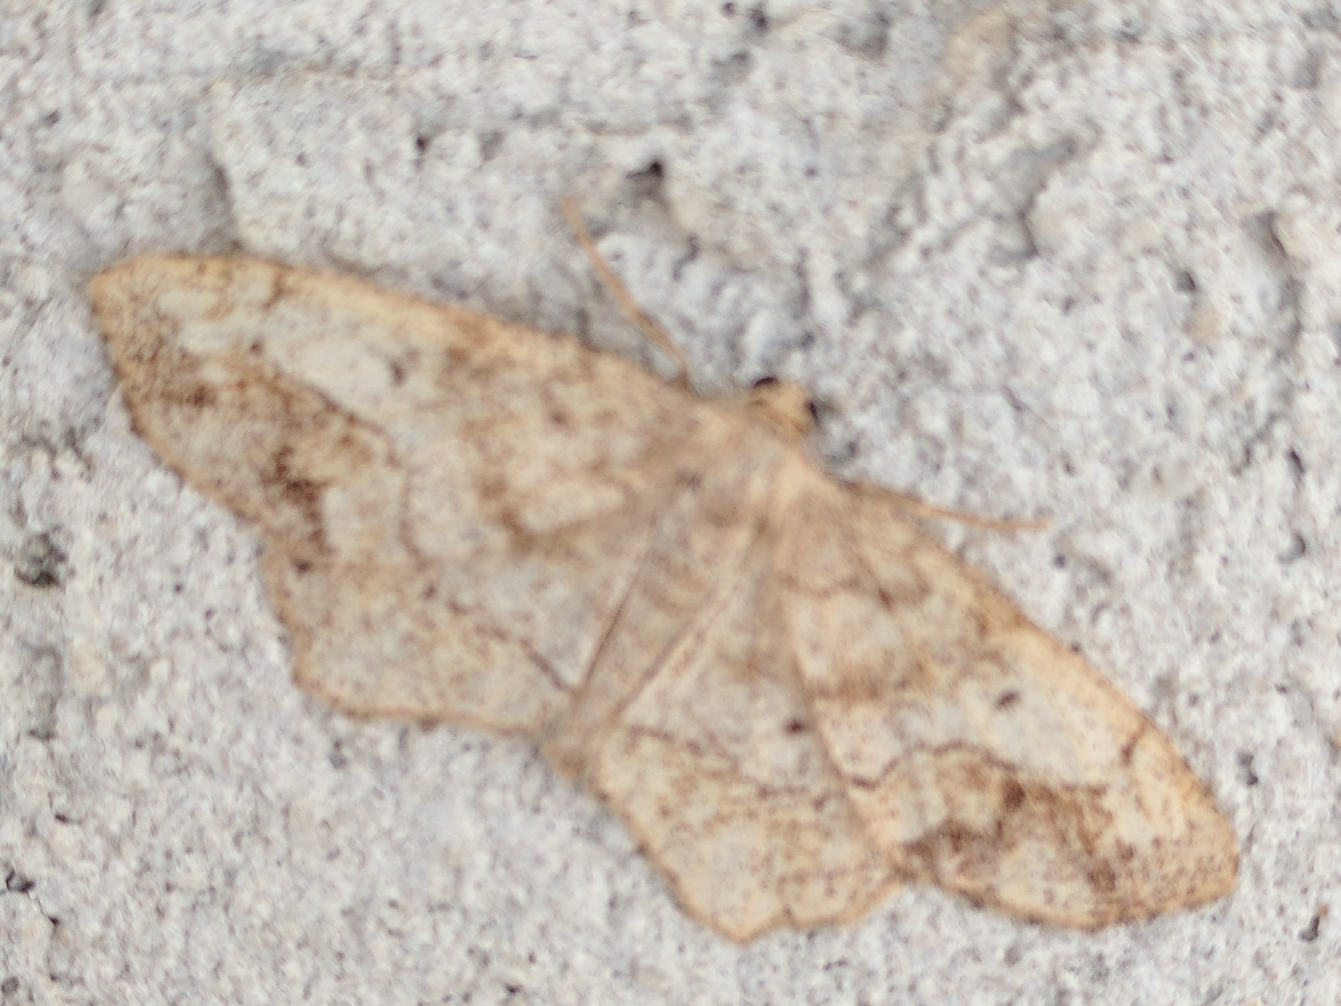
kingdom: Animalia
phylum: Arthropoda
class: Insecta
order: Lepidoptera
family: Geometridae
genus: Hypagyrtis
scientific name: Hypagyrtis unipunctata
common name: One-spotted variant
